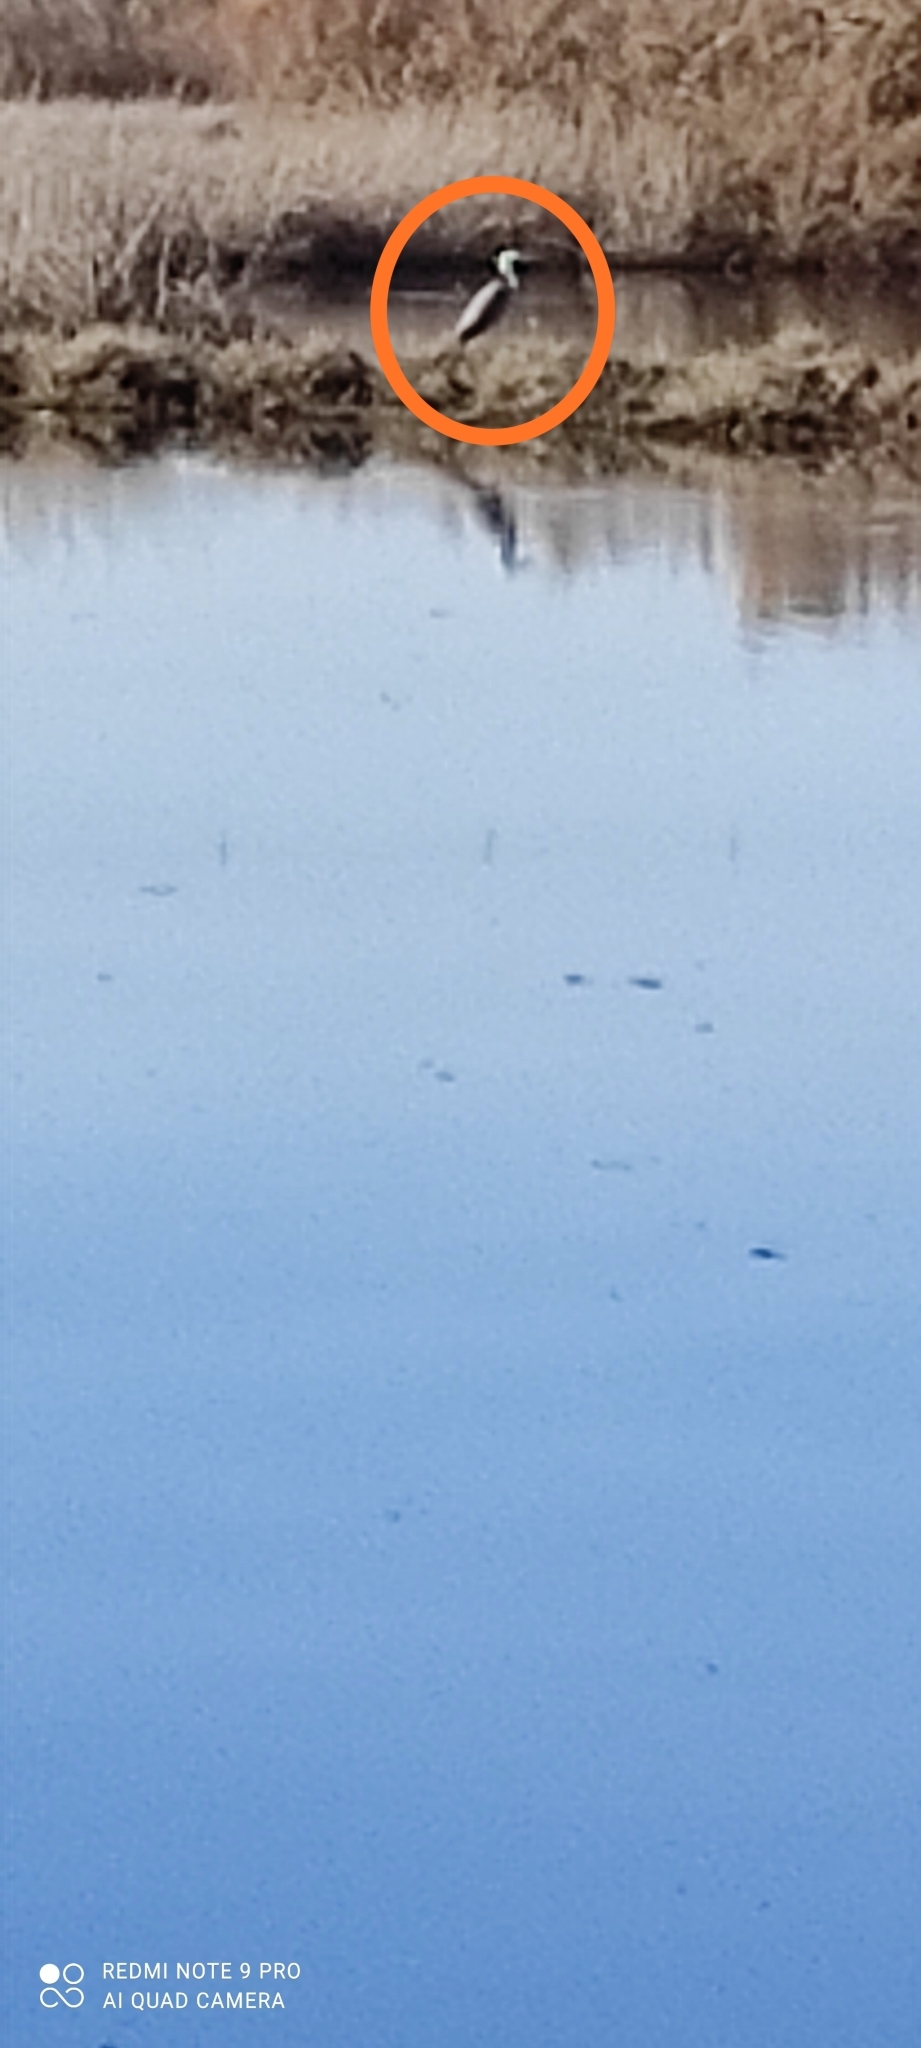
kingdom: Animalia
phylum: Chordata
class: Aves
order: Pelecaniformes
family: Ardeidae
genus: Ardea
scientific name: Ardea cinerea
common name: Grey heron
